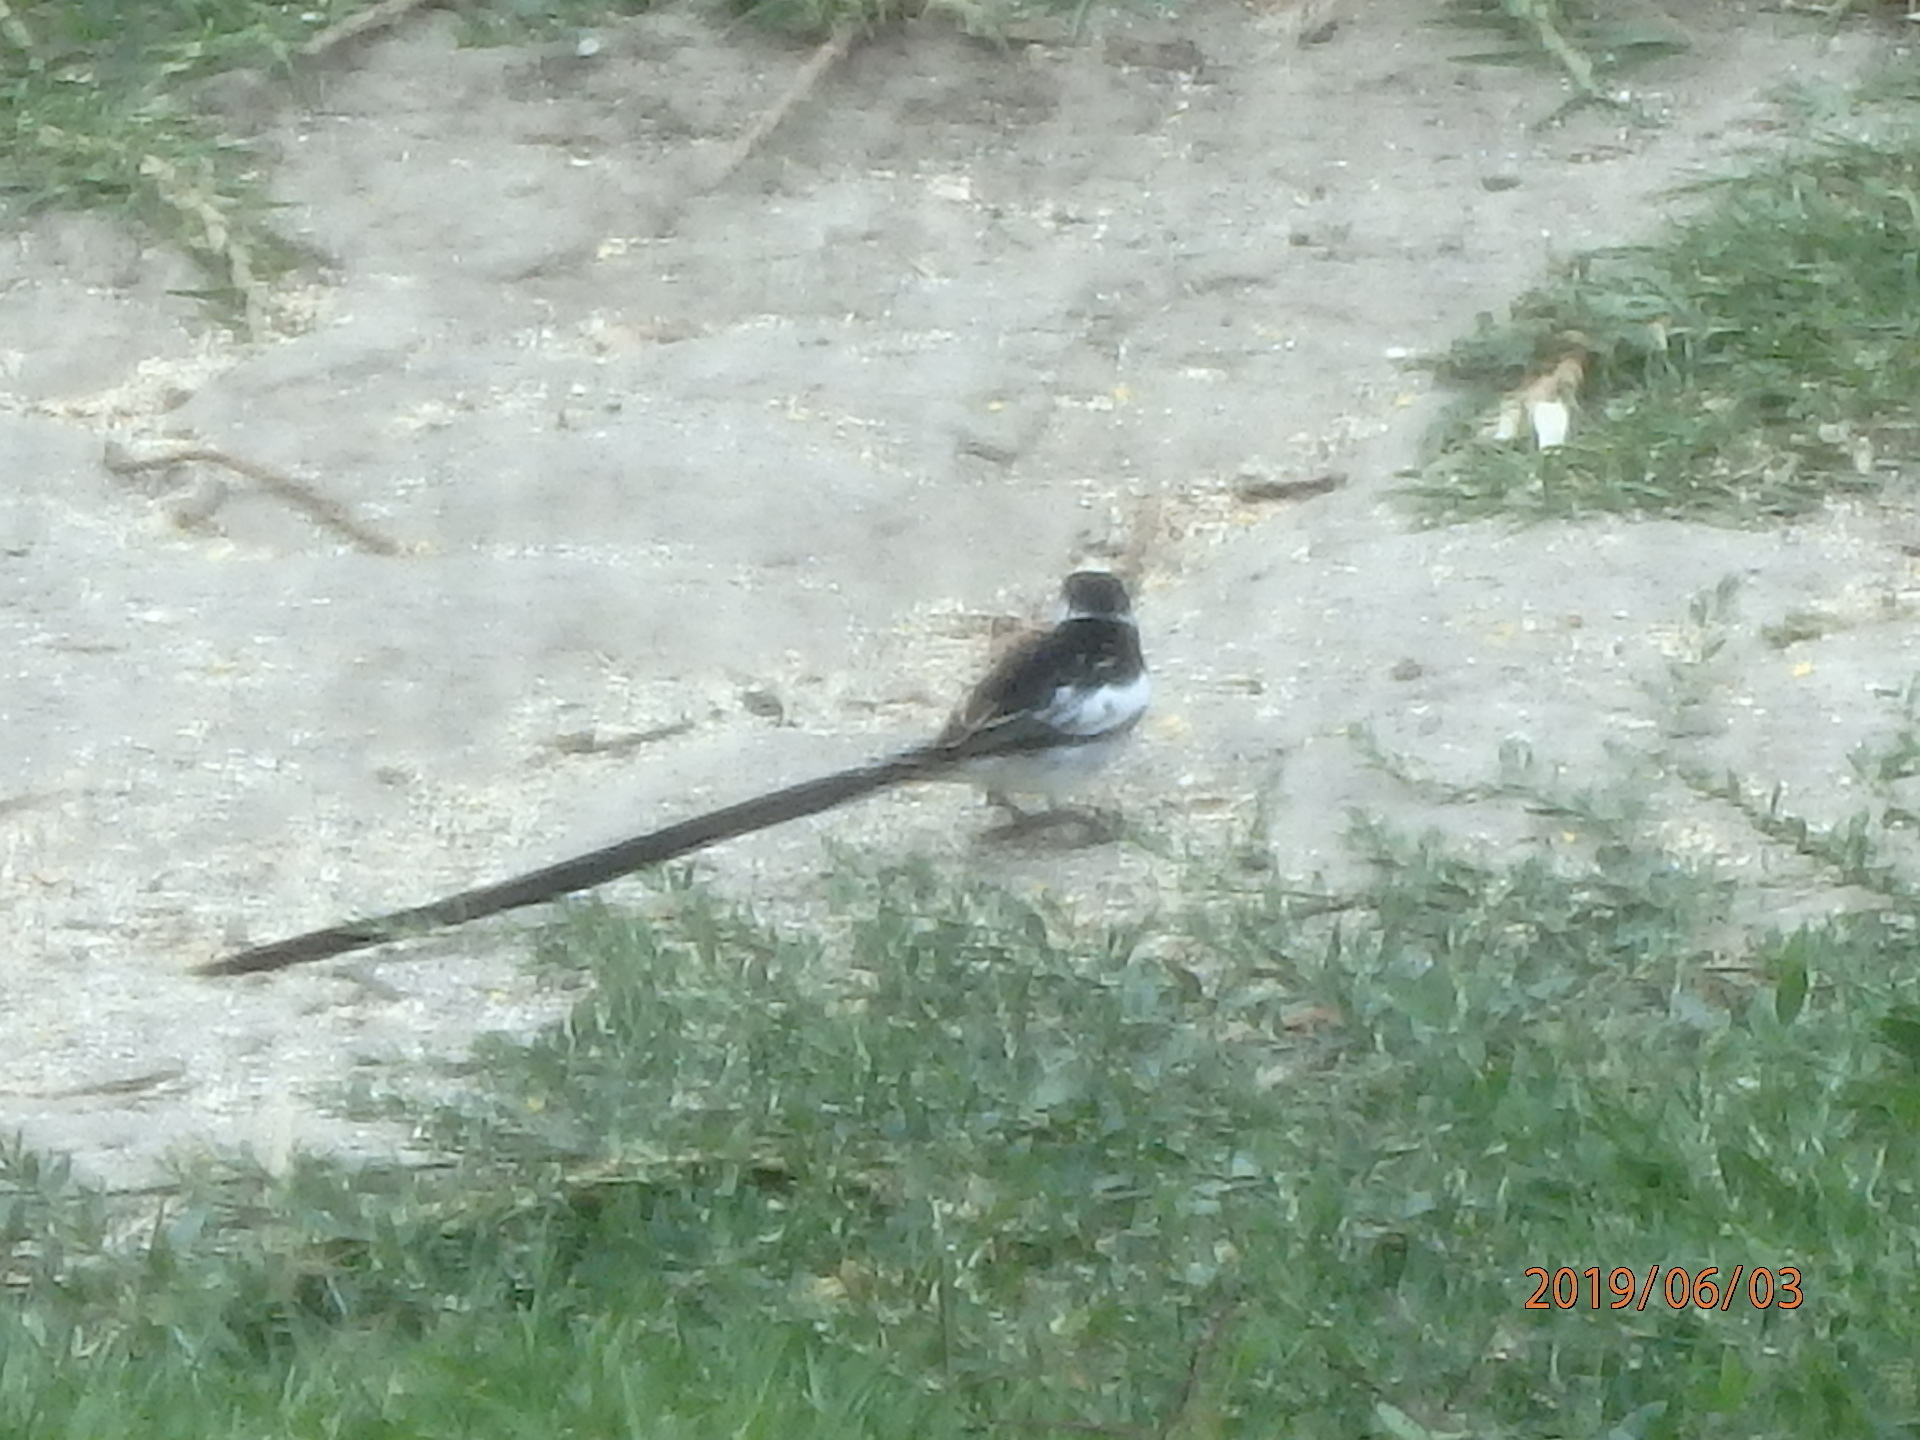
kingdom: Animalia
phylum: Chordata
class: Aves
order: Passeriformes
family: Viduidae
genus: Vidua
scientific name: Vidua macroura
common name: Pin-tailed whydah
